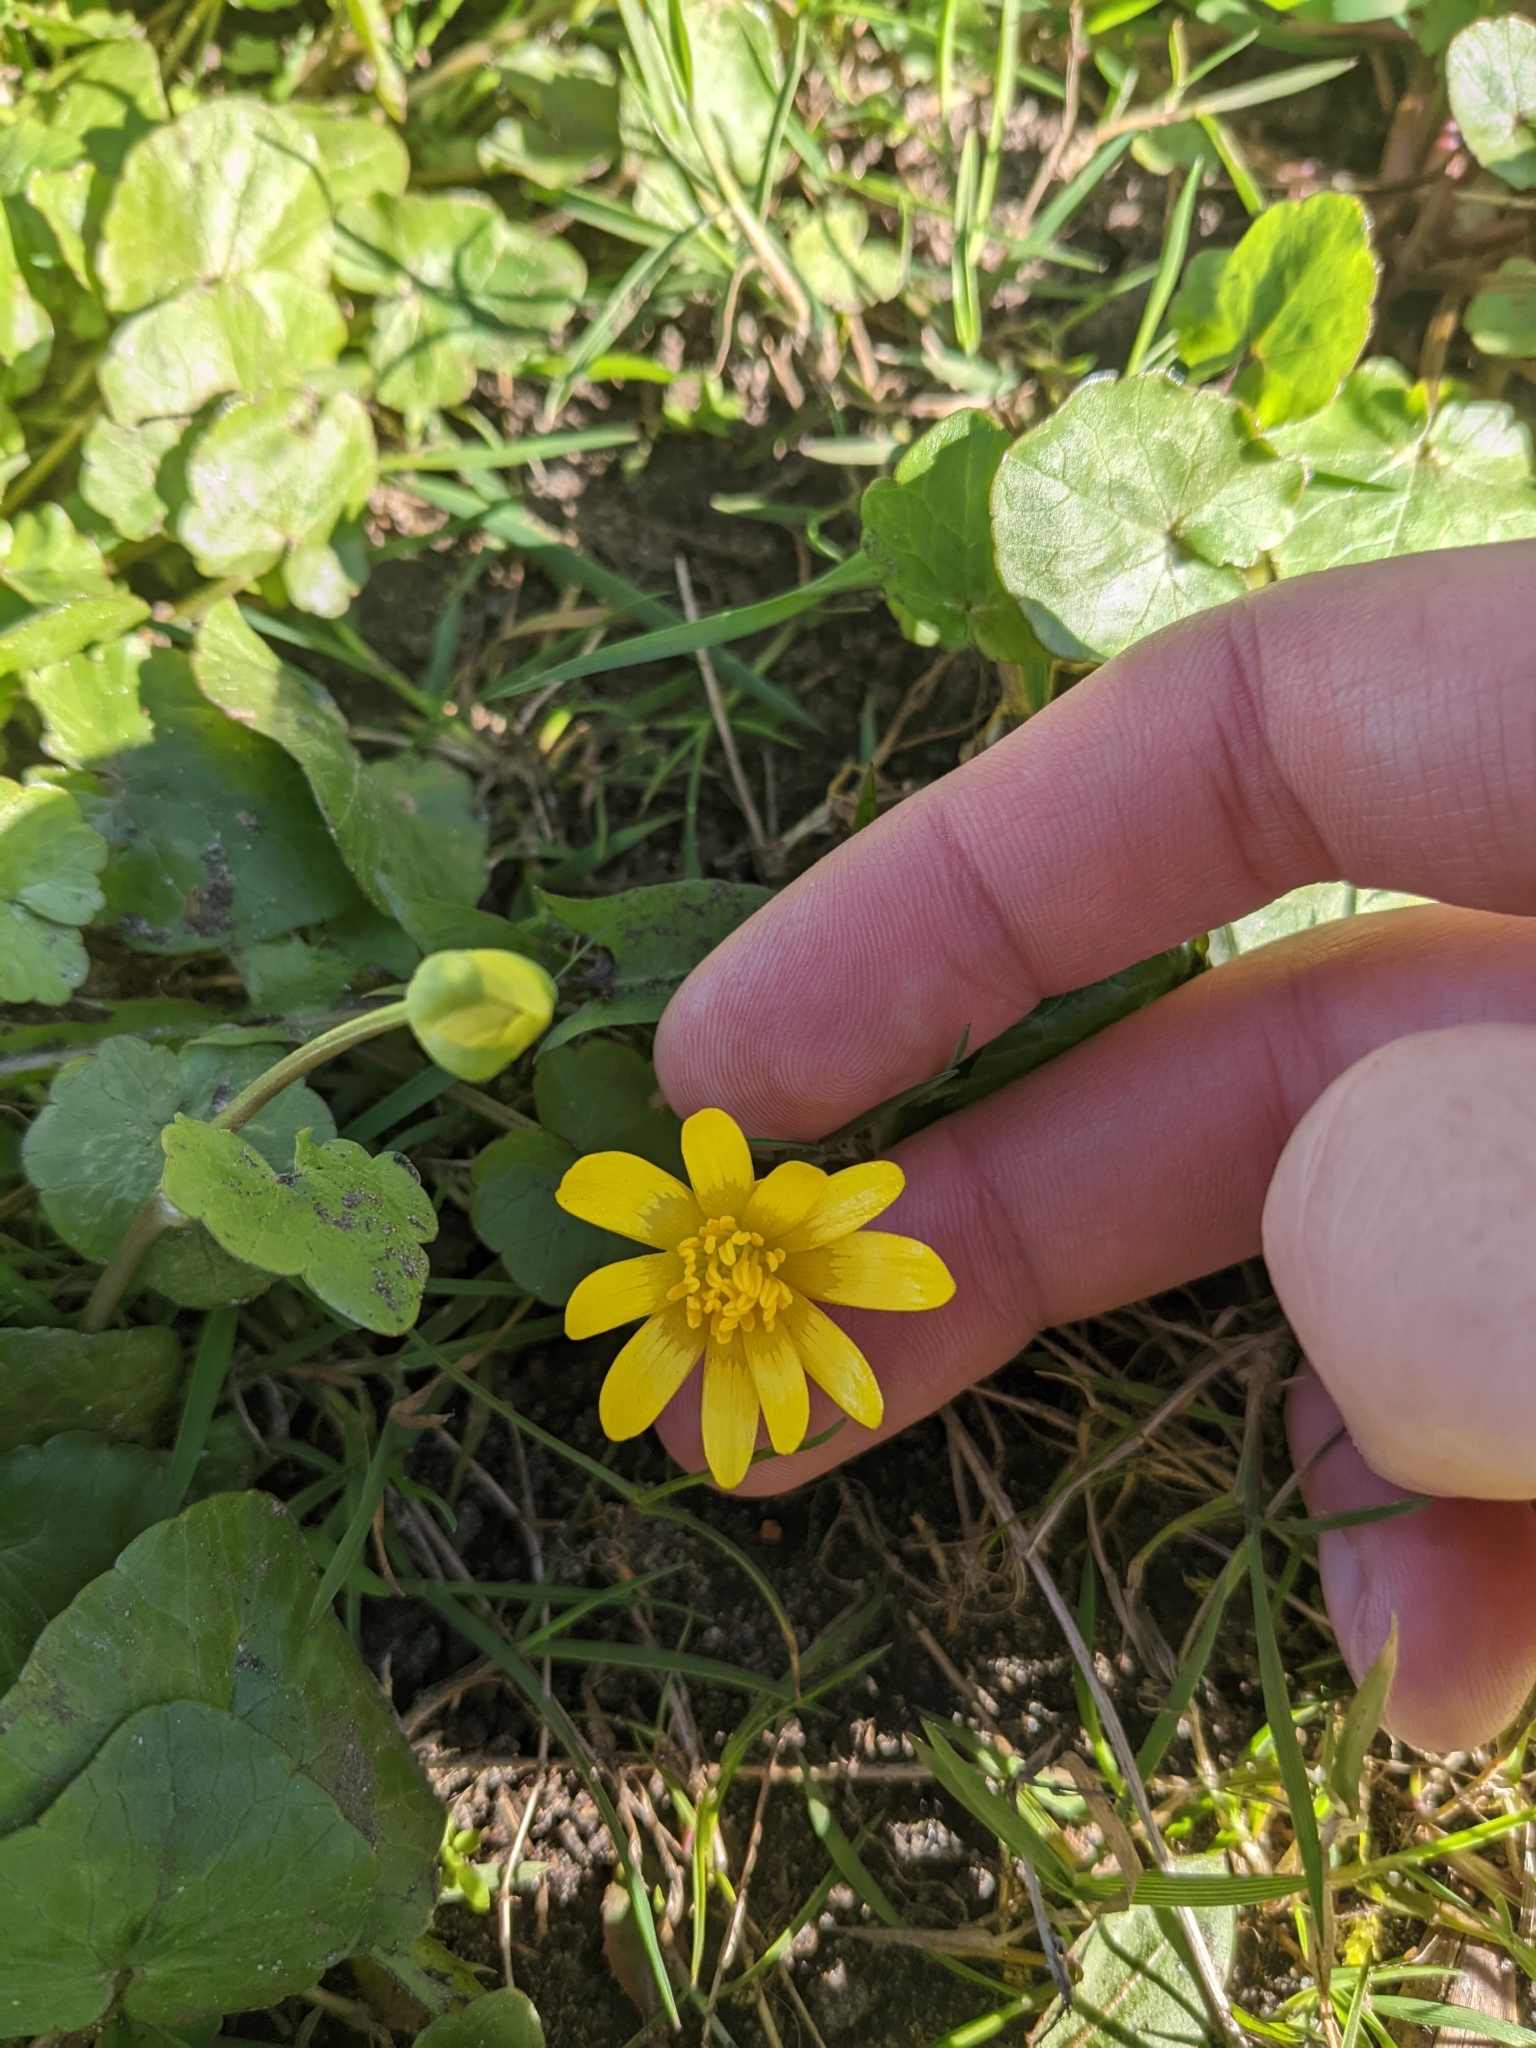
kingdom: Plantae
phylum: Tracheophyta
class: Magnoliopsida
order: Ranunculales
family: Ranunculaceae
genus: Ficaria
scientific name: Ficaria verna
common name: Lesser celandine
